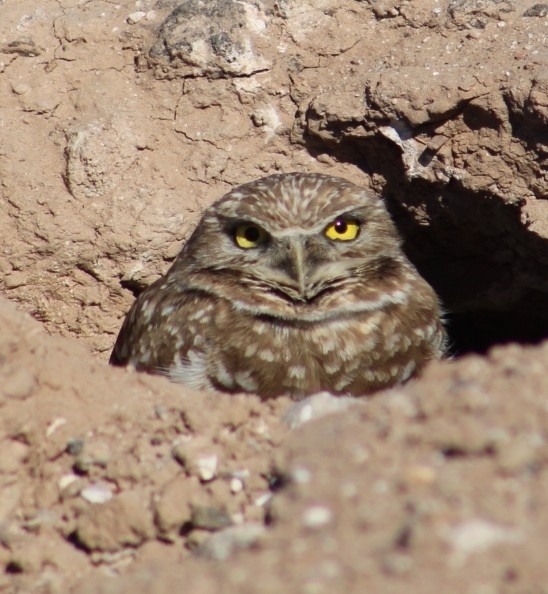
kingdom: Animalia
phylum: Chordata
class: Aves
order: Strigiformes
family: Strigidae
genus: Athene
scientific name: Athene cunicularia
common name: Burrowing owl
